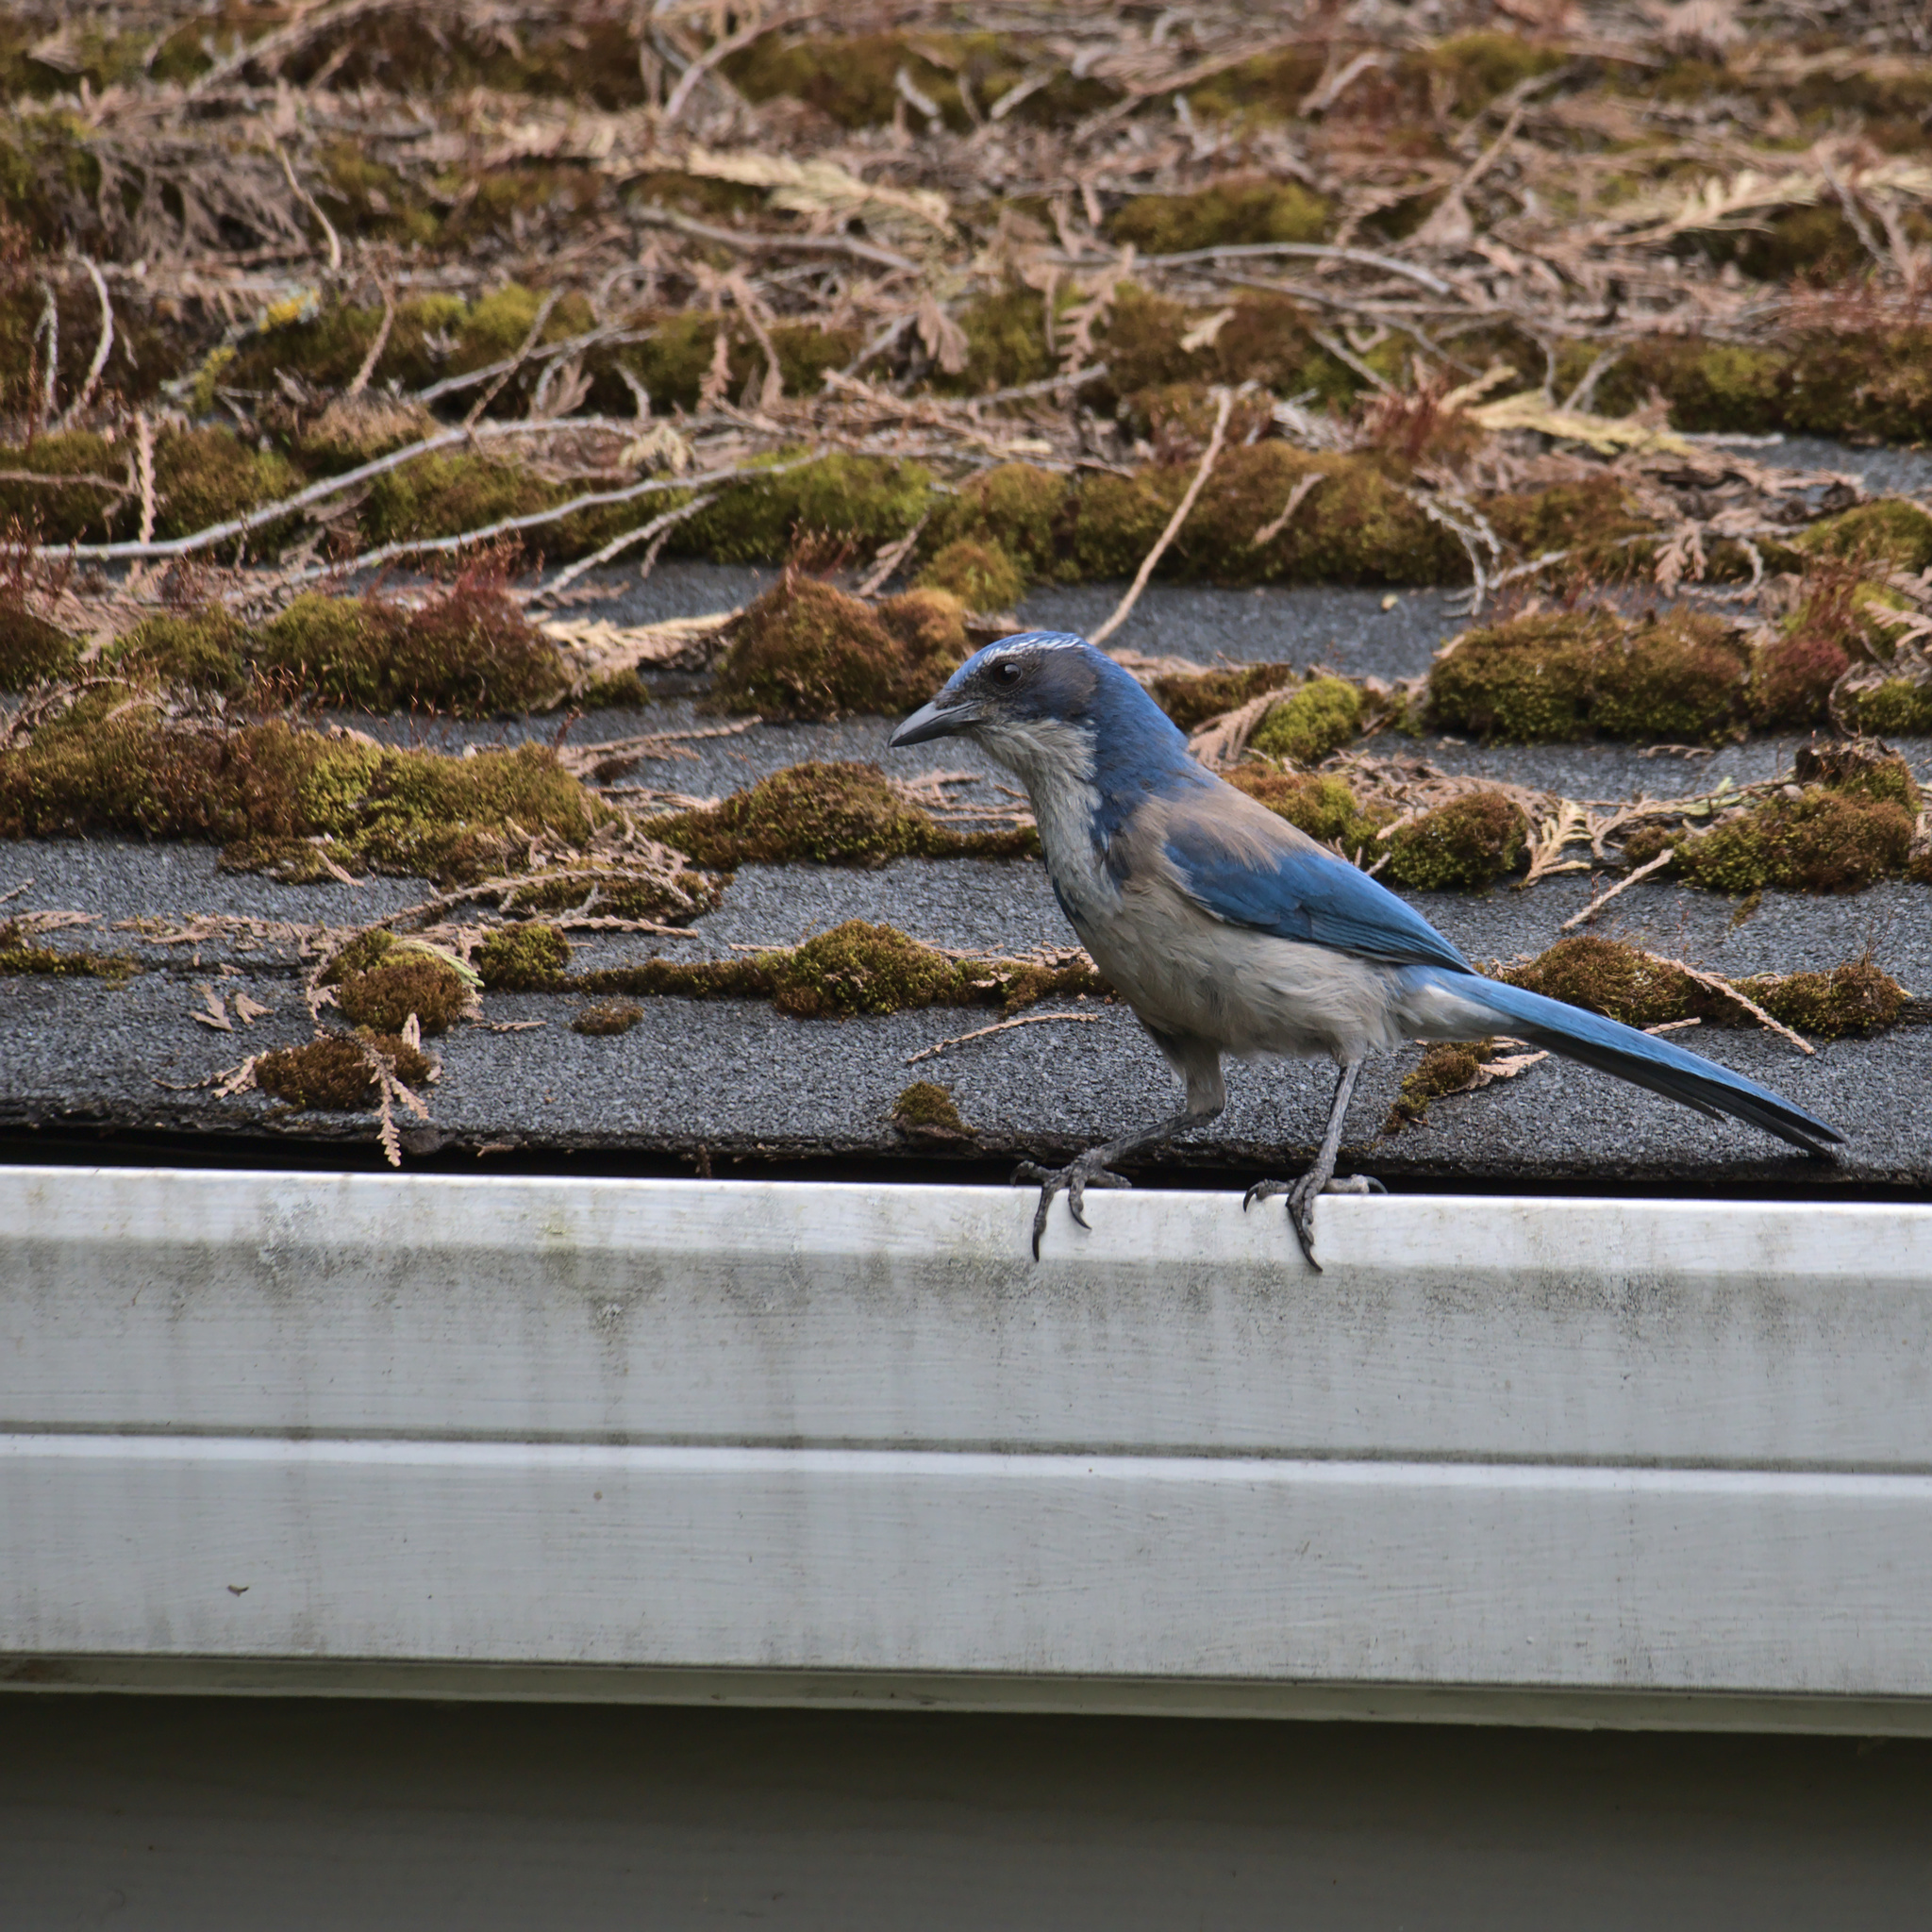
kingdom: Animalia
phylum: Chordata
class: Aves
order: Passeriformes
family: Corvidae
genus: Aphelocoma
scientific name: Aphelocoma californica
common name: California scrub-jay
